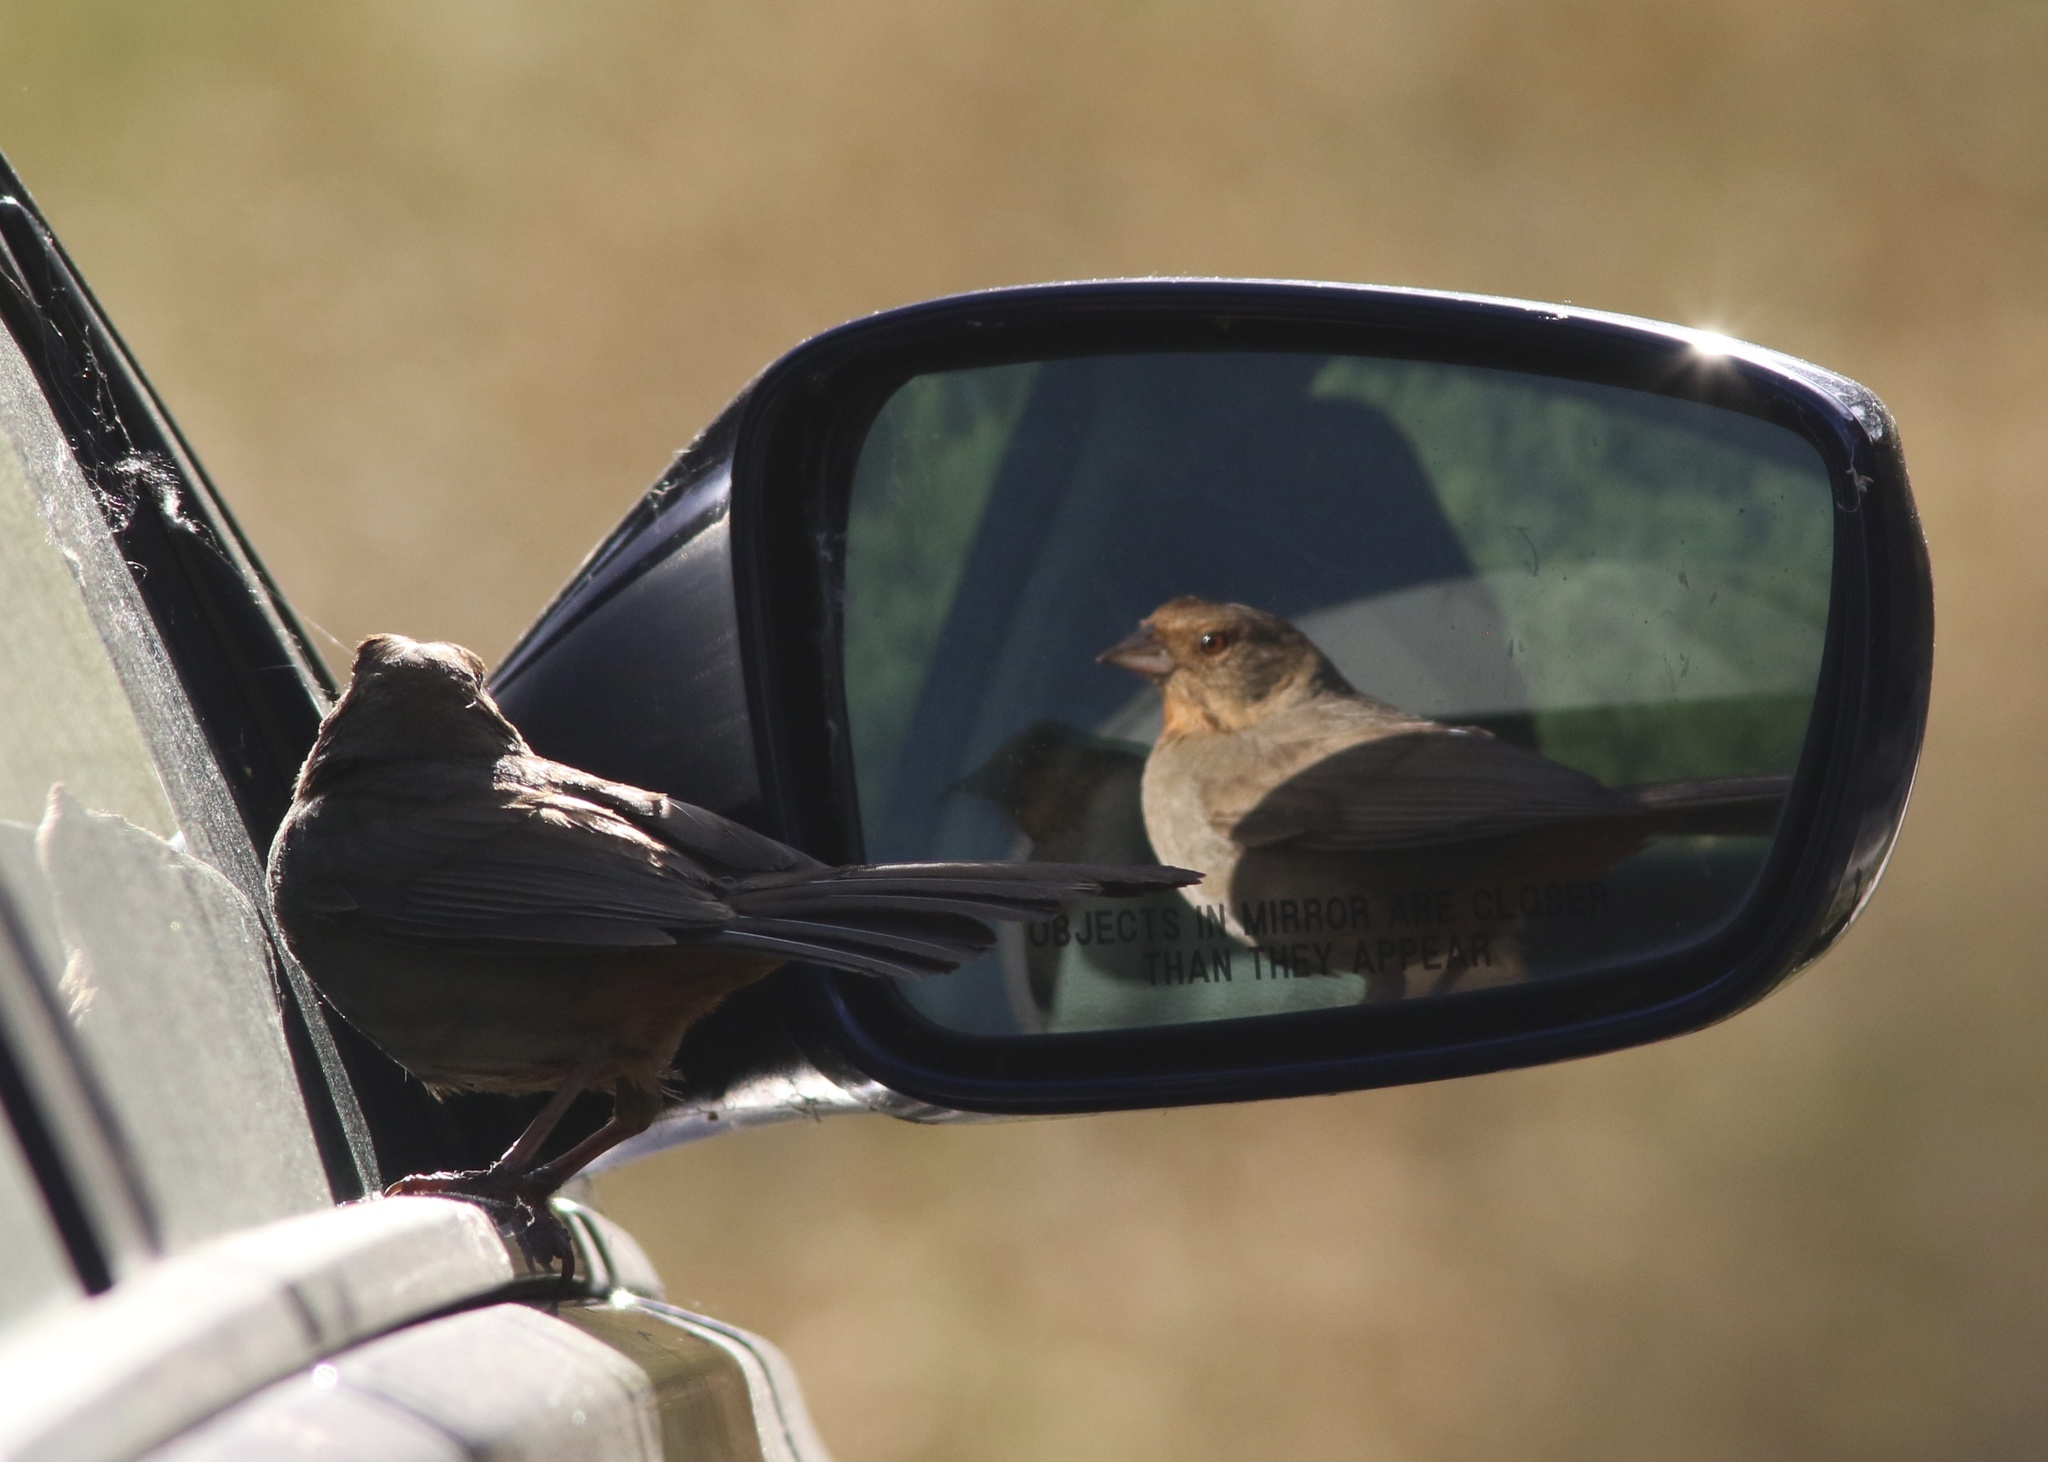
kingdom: Animalia
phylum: Chordata
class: Aves
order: Passeriformes
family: Passerellidae
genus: Melozone
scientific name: Melozone crissalis
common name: California towhee
